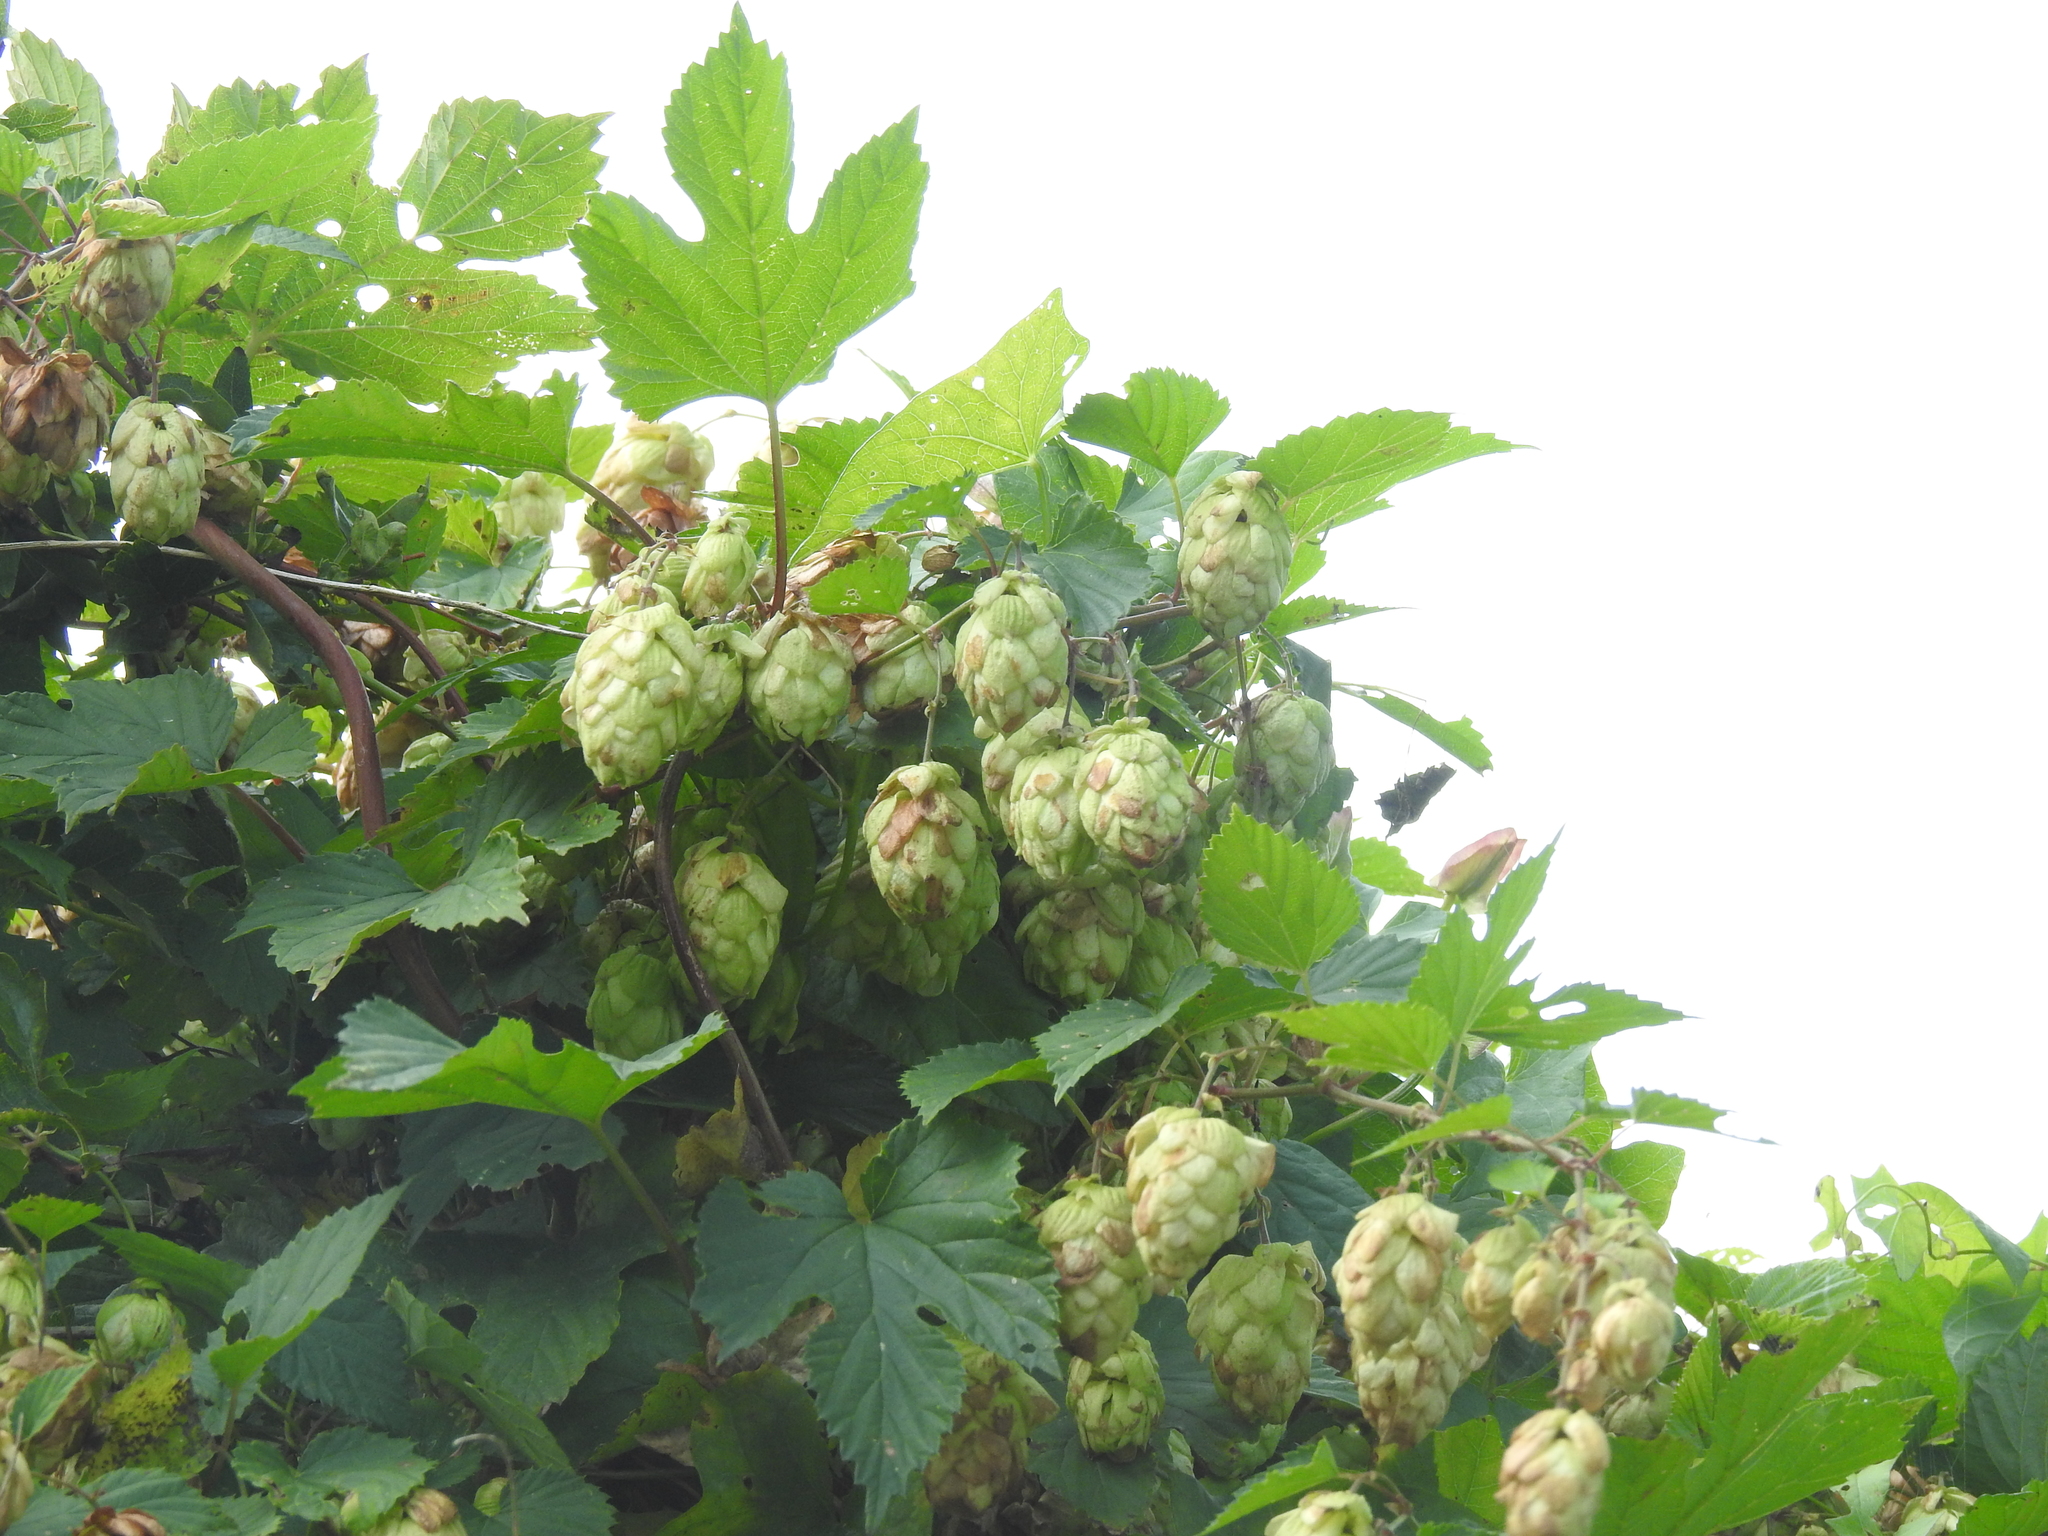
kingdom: Plantae
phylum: Tracheophyta
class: Magnoliopsida
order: Rosales
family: Cannabaceae
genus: Humulus
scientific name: Humulus lupulus
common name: Hop
